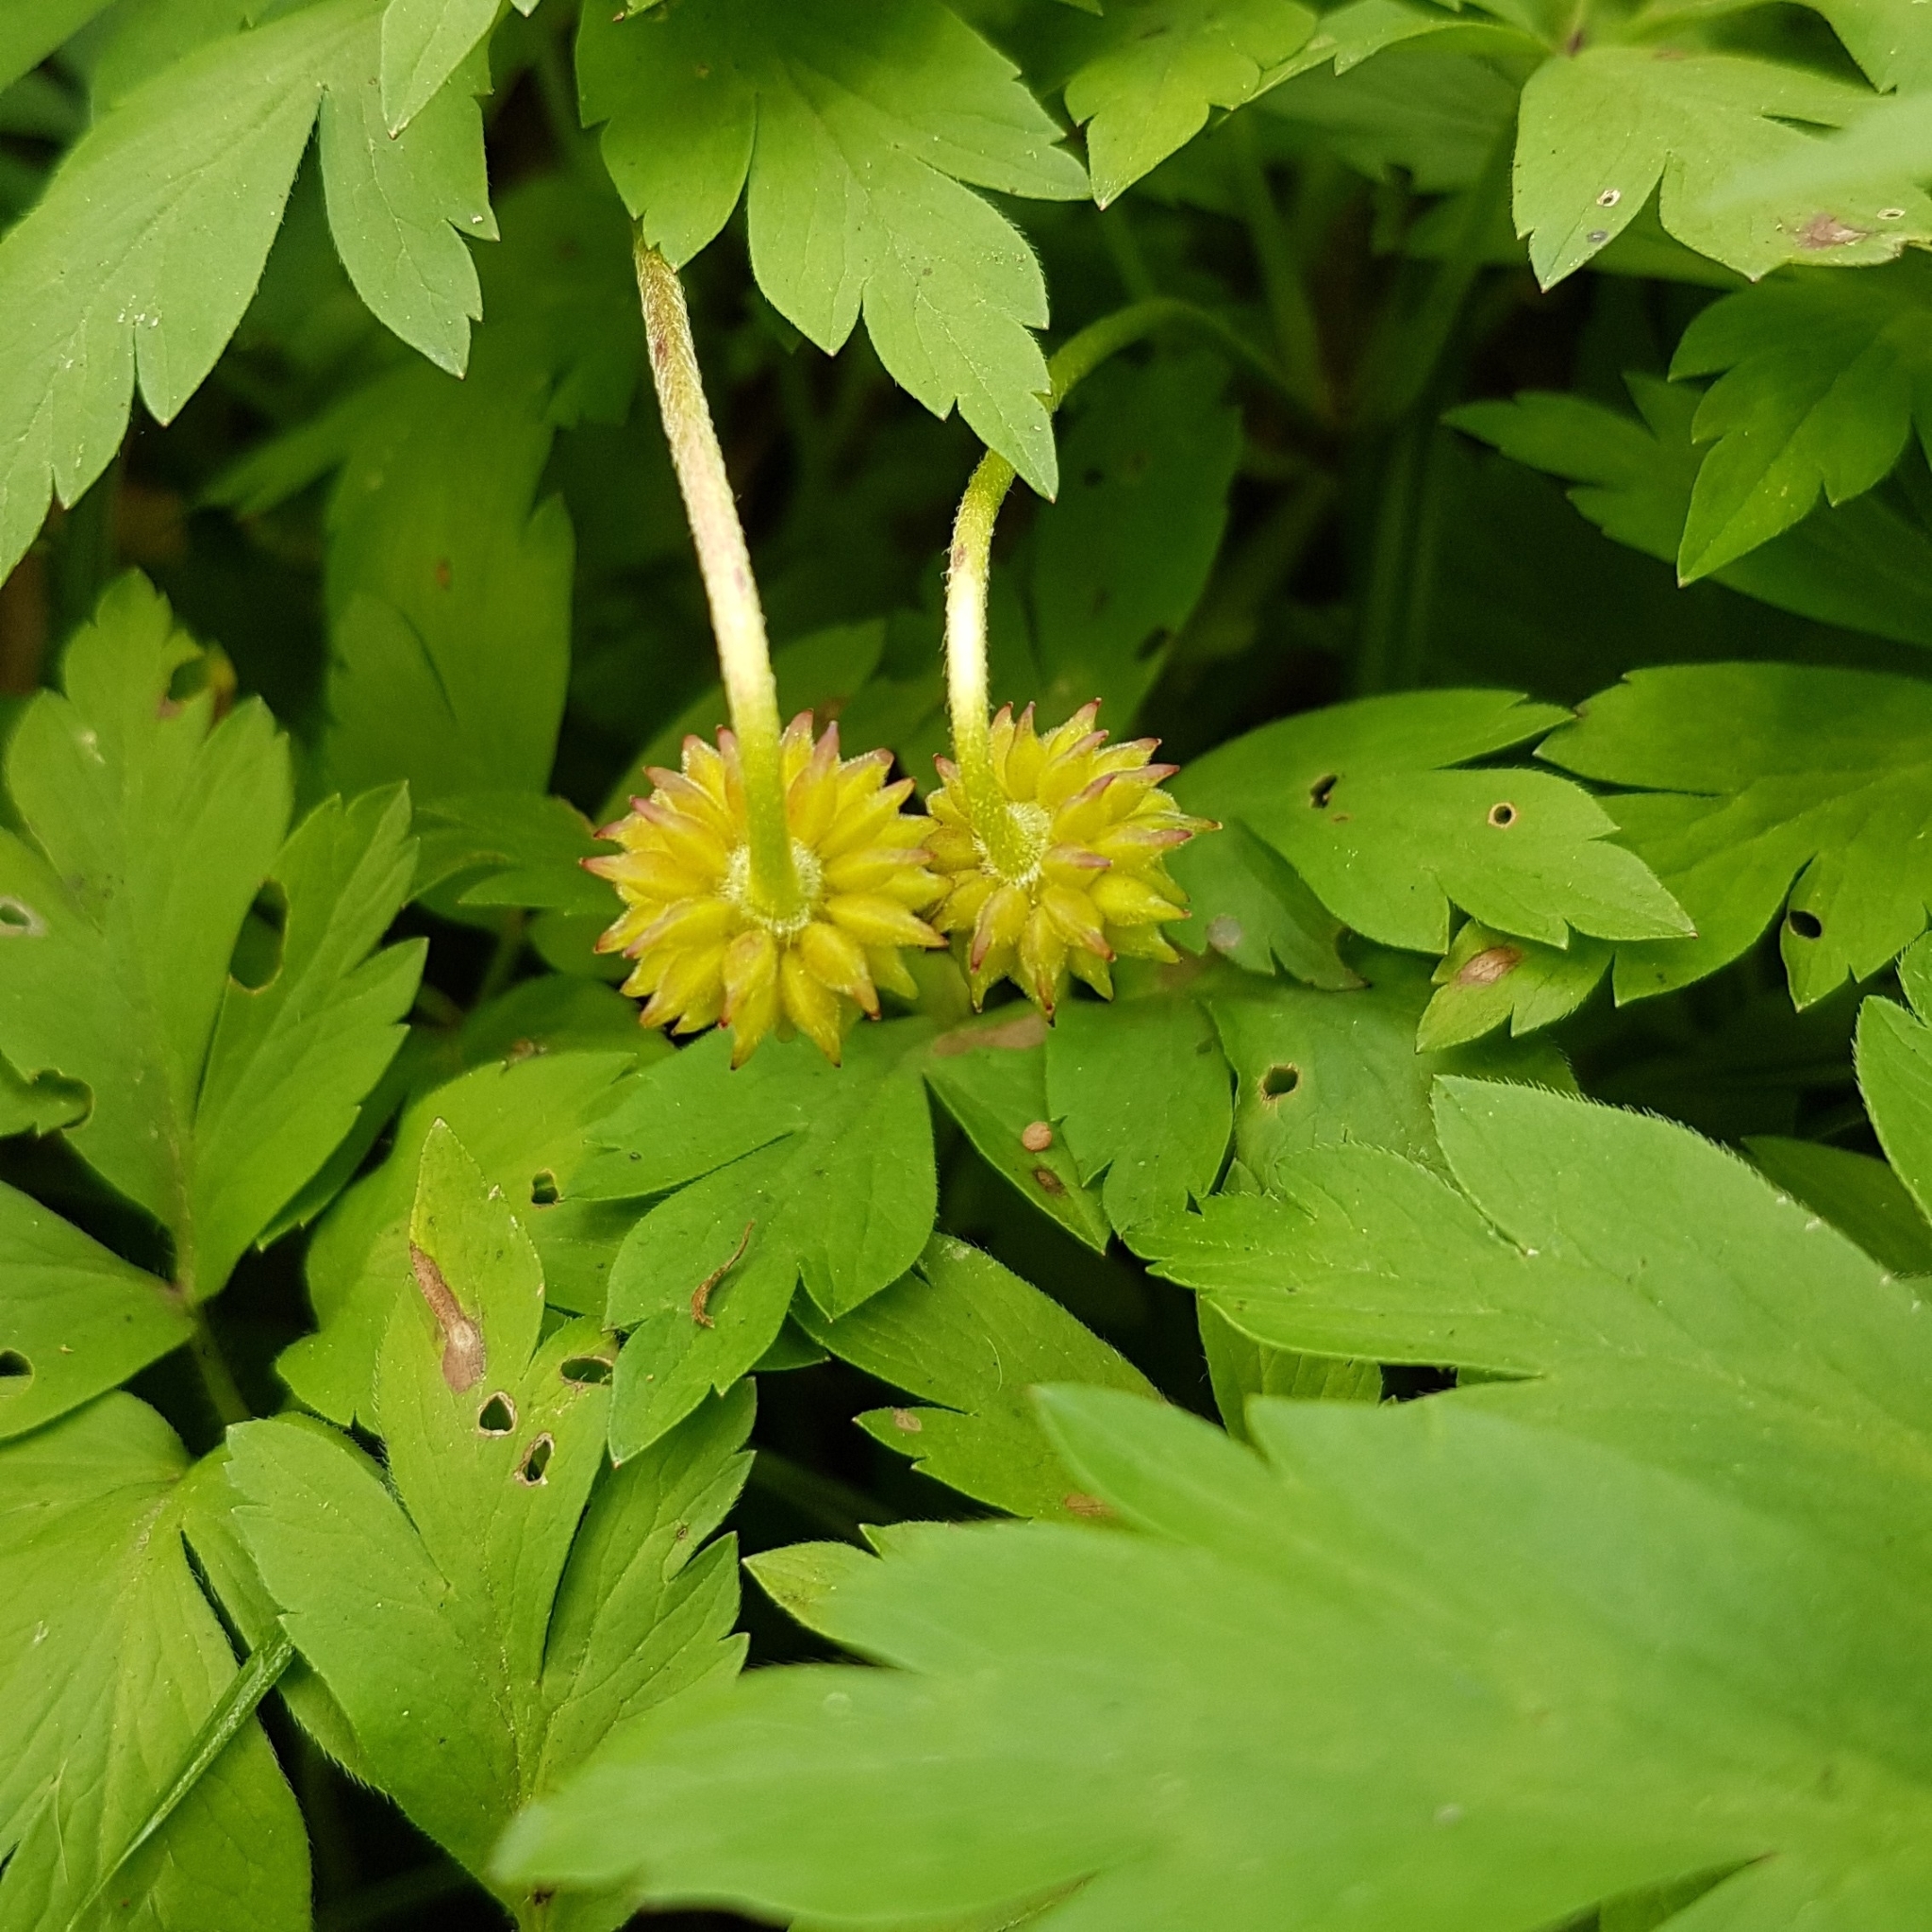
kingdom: Plantae
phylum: Tracheophyta
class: Magnoliopsida
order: Ranunculales
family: Ranunculaceae
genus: Anemone
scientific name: Anemone nemorosa
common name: Wood anemone
